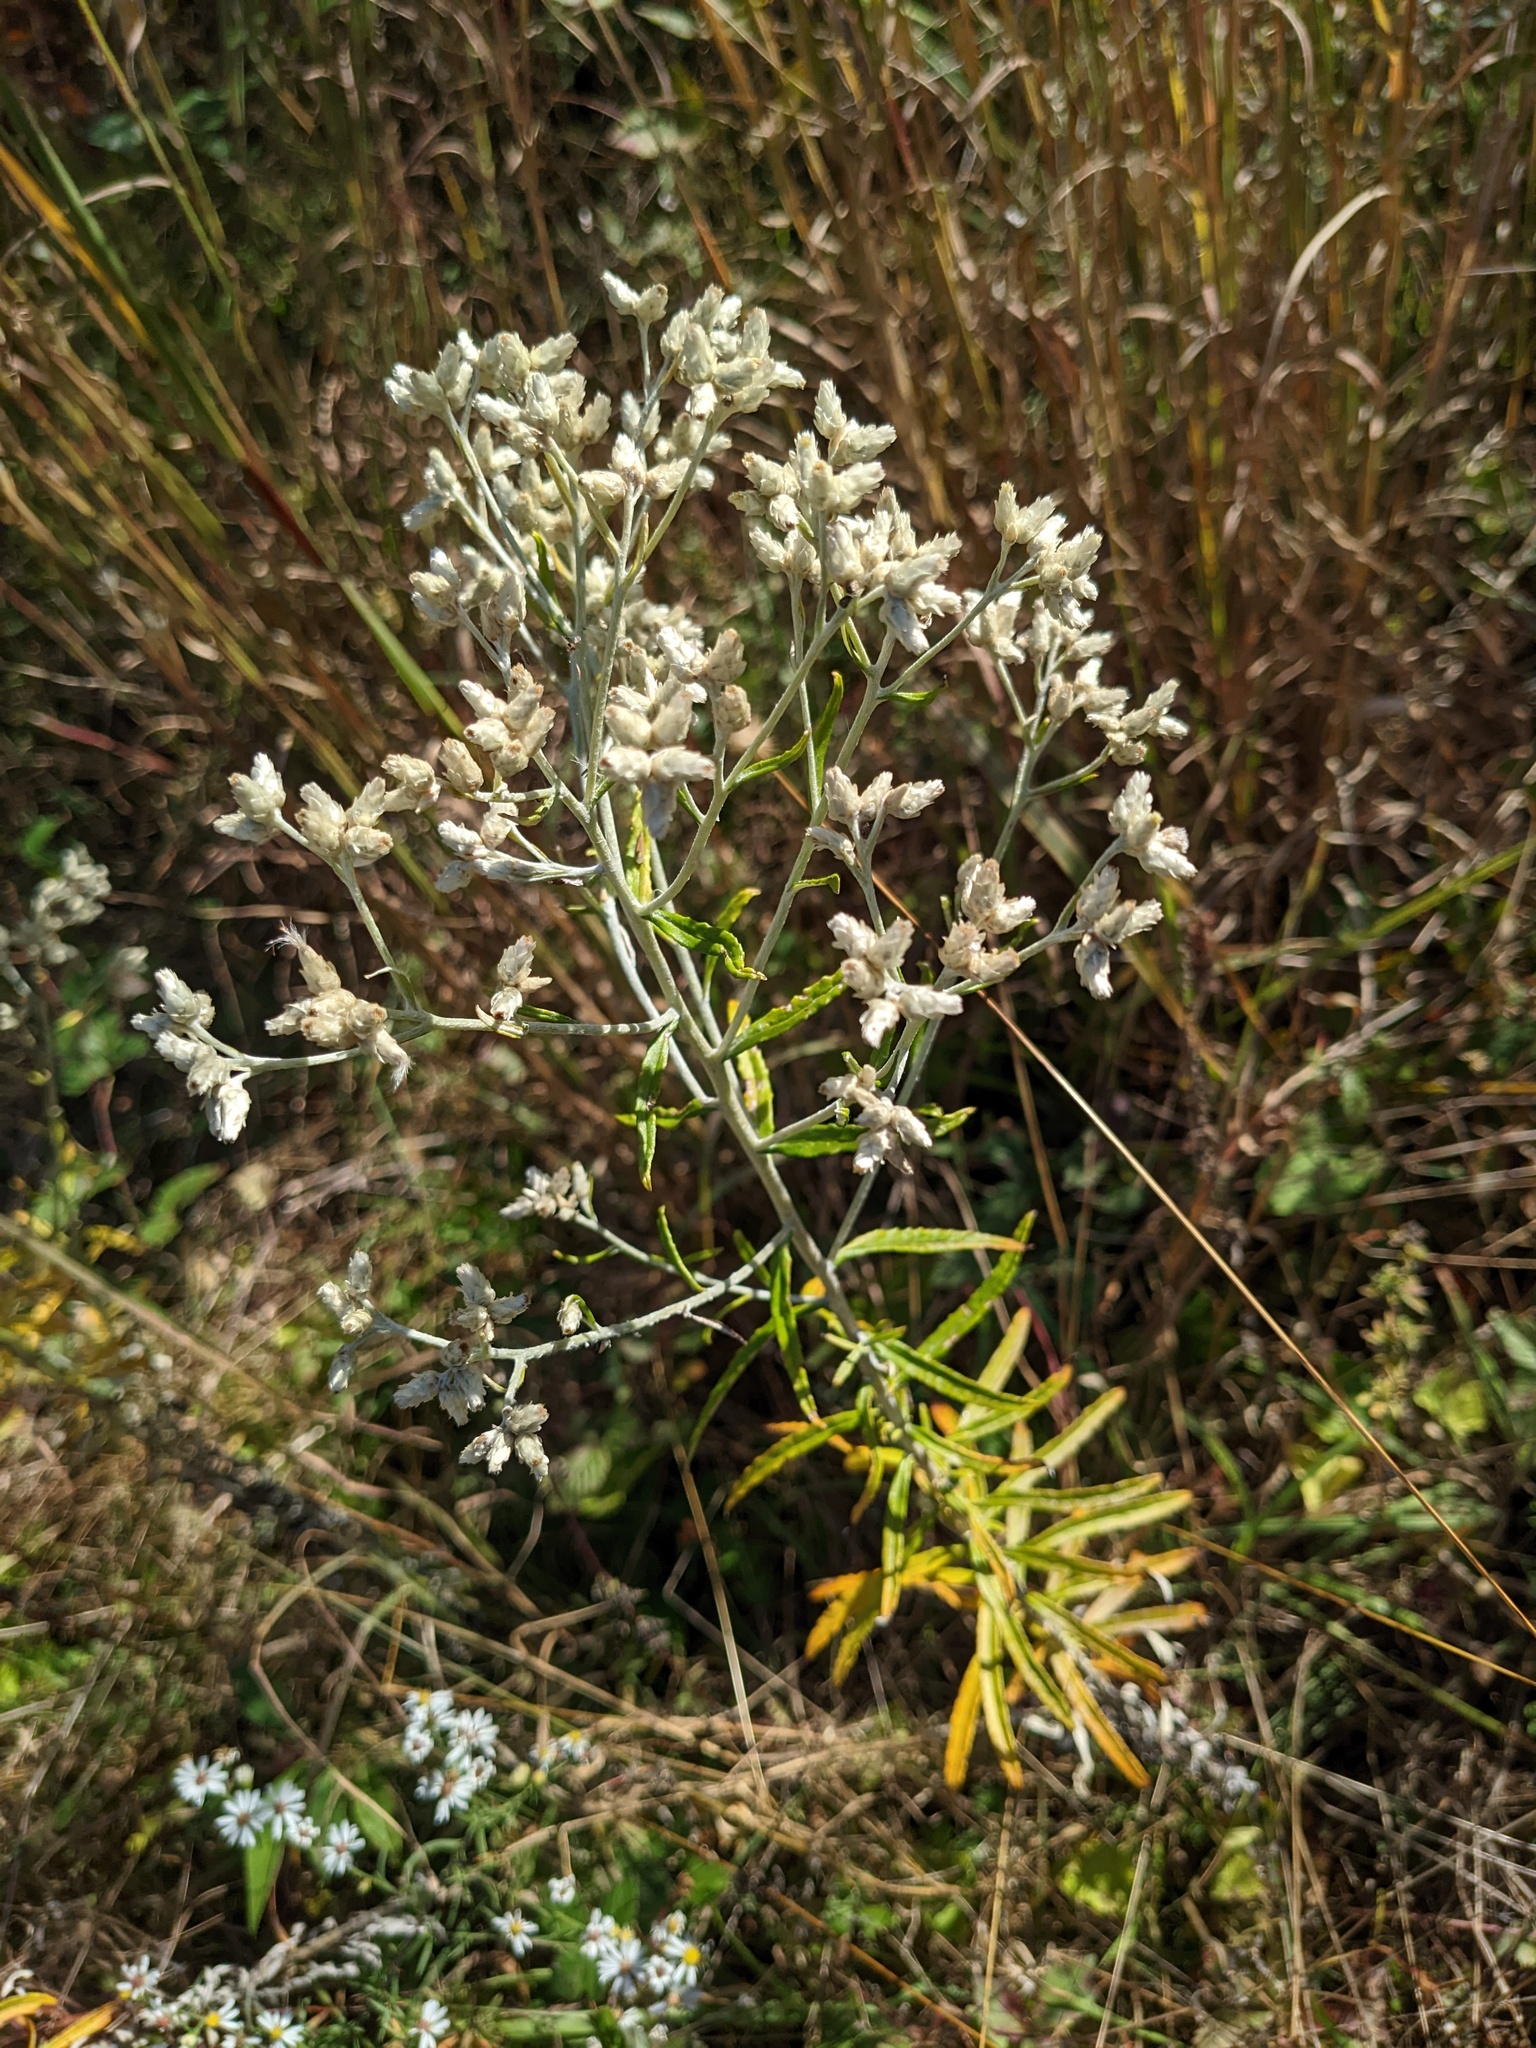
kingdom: Plantae
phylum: Tracheophyta
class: Magnoliopsida
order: Asterales
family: Asteraceae
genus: Pseudognaphalium
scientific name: Pseudognaphalium obtusifolium
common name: Eastern rabbit-tobacco
